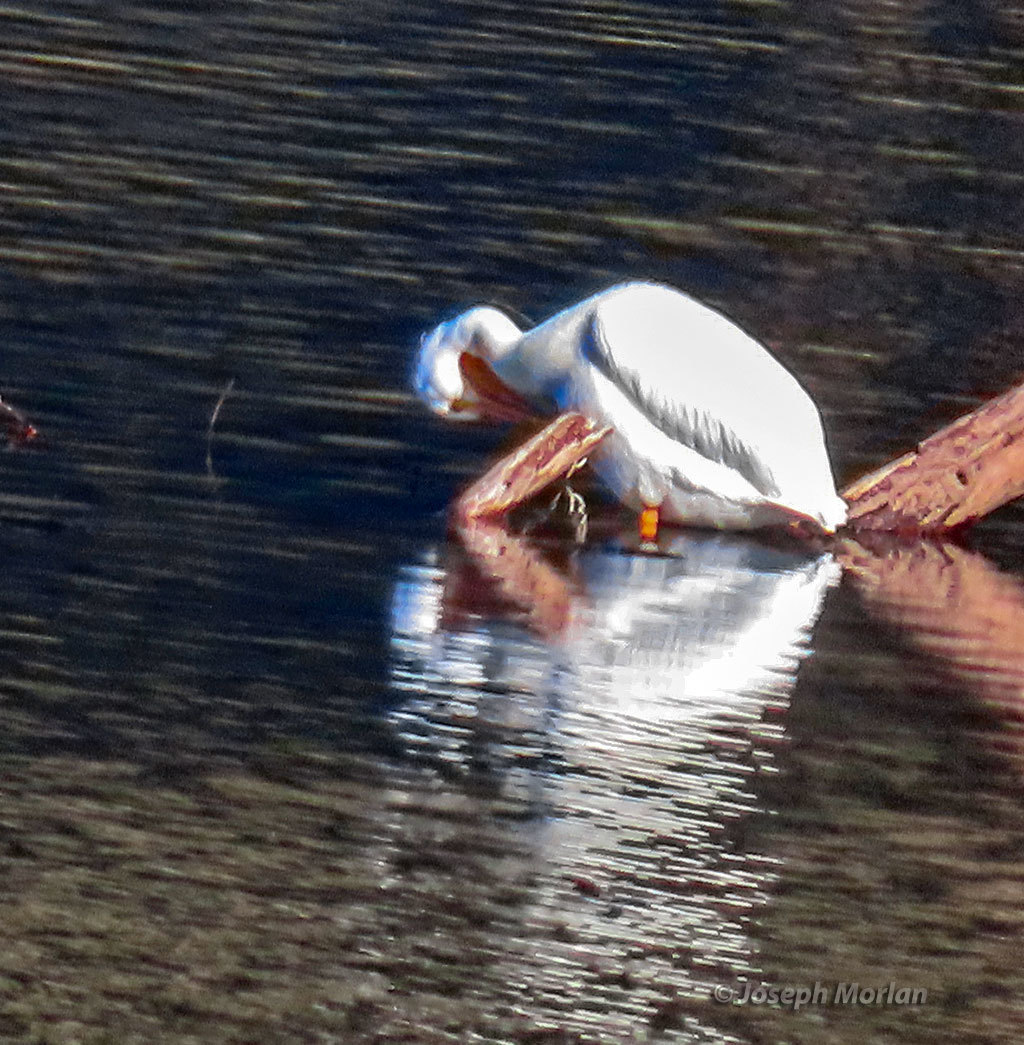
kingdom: Animalia
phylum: Chordata
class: Aves
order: Pelecaniformes
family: Pelecanidae
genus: Pelecanus
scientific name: Pelecanus erythrorhynchos
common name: American white pelican
